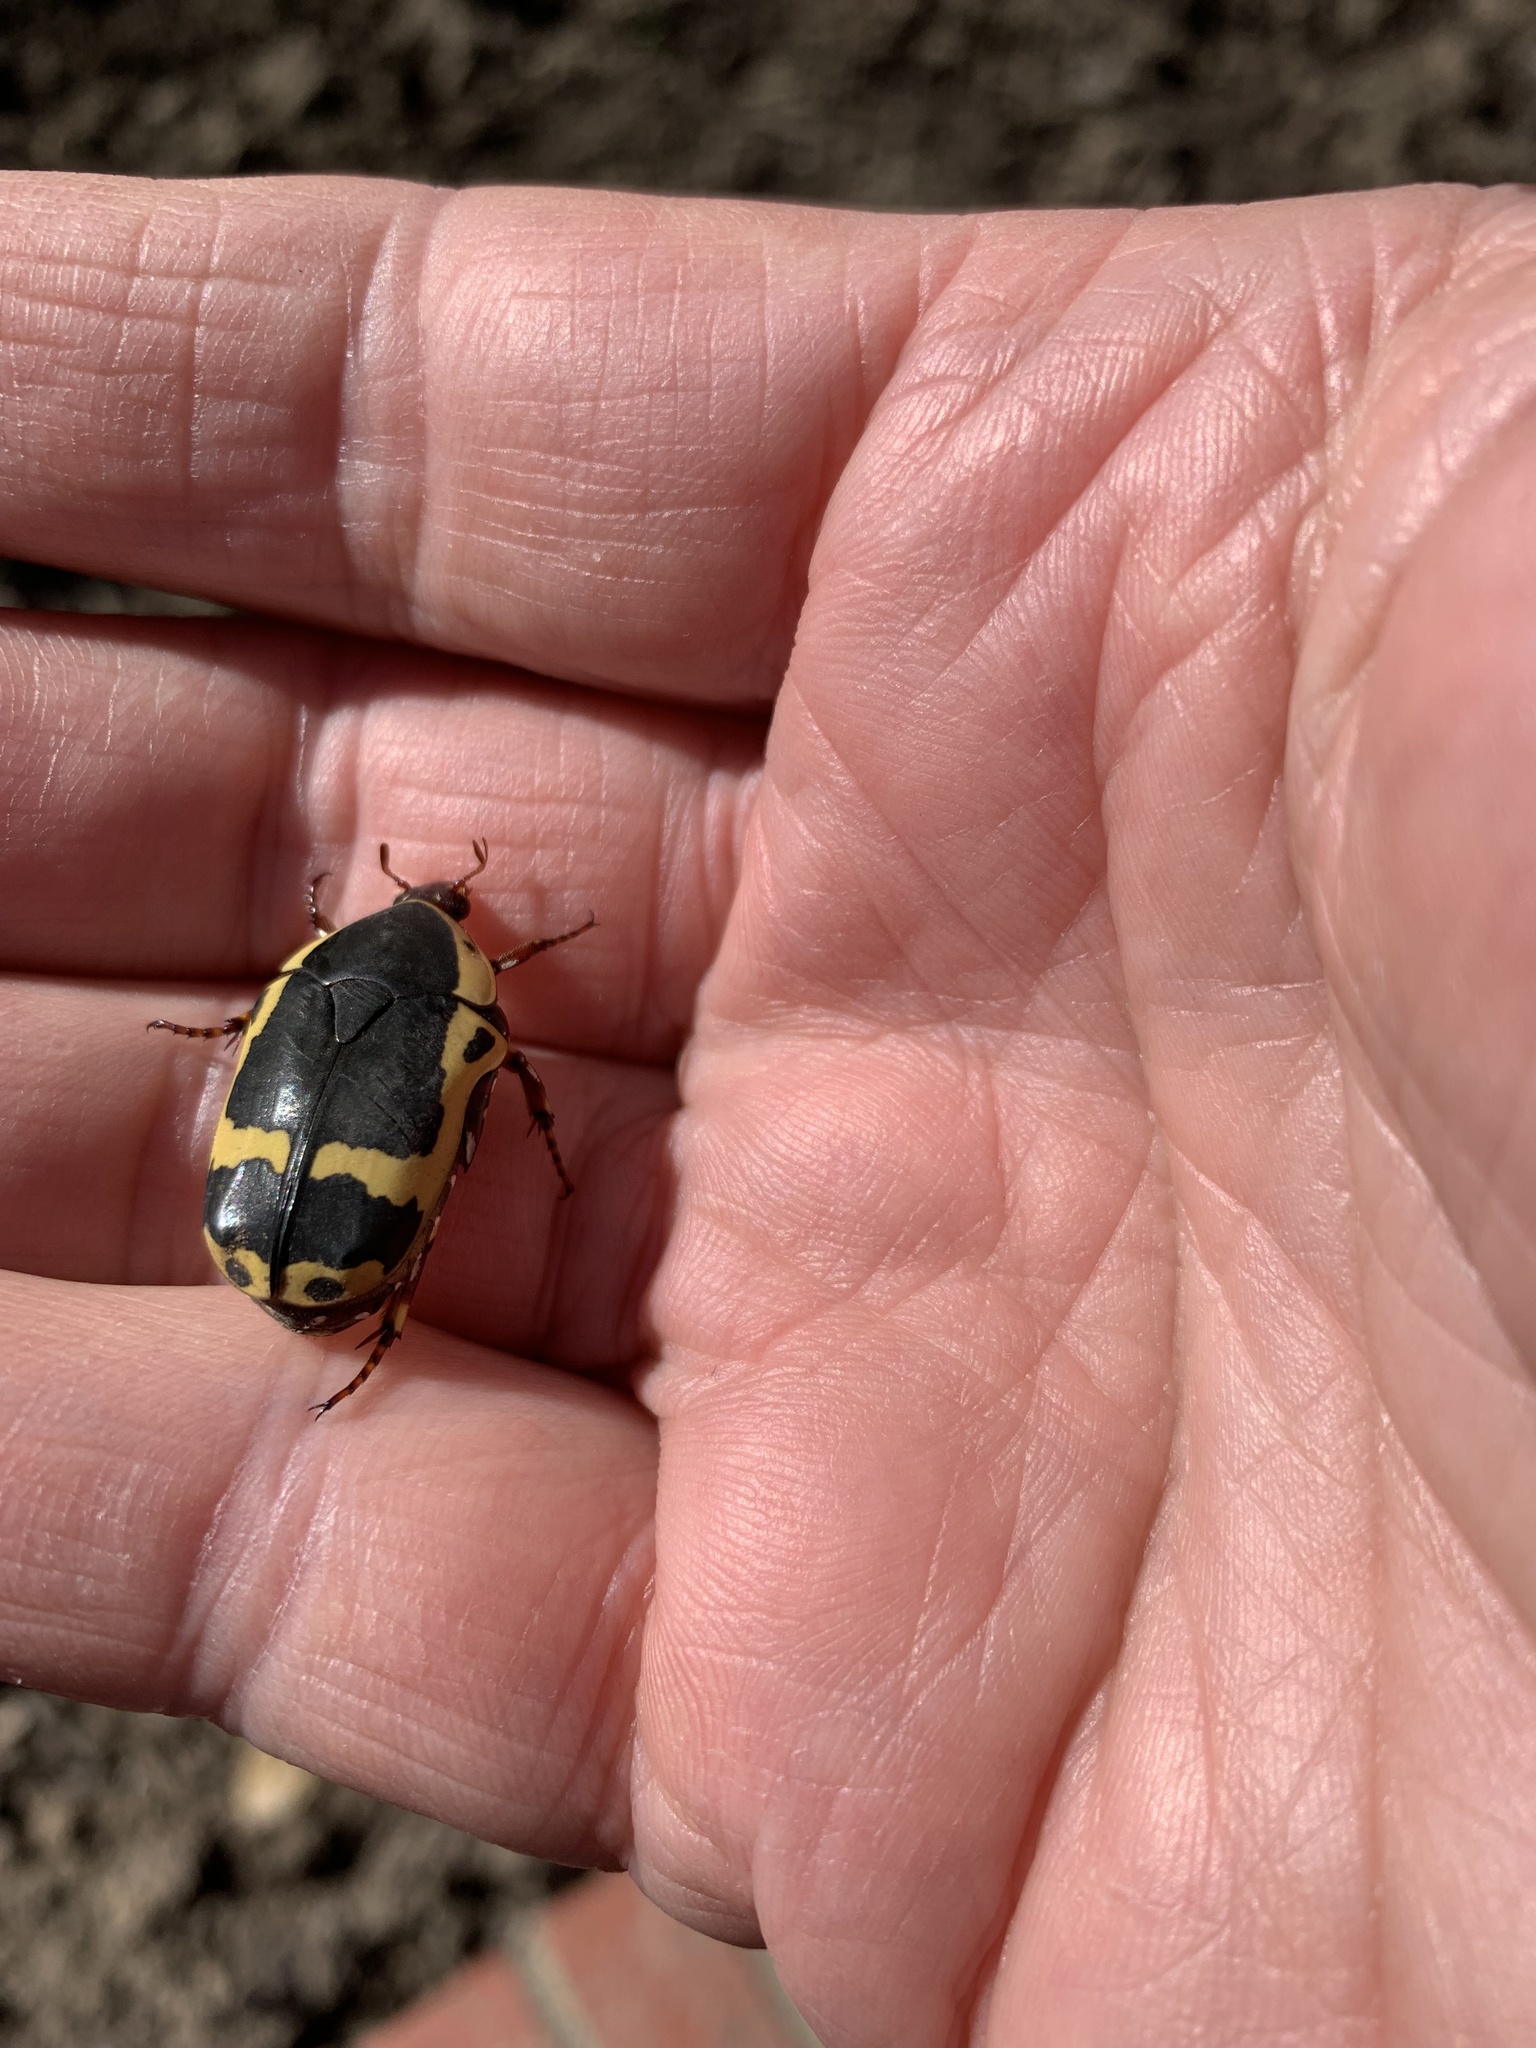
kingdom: Animalia
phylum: Arthropoda
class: Insecta
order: Coleoptera
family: Scarabaeidae
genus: Pachnoda
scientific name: Pachnoda sinuata
